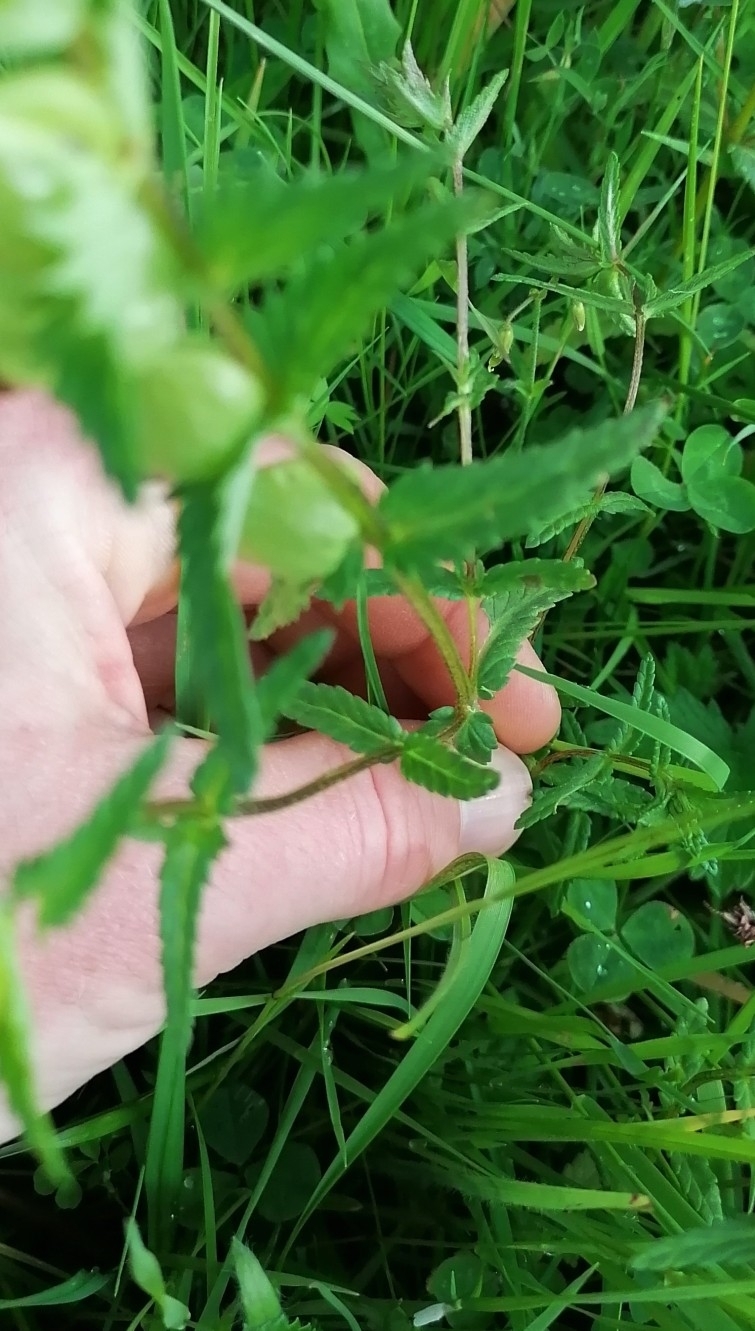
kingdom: Plantae
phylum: Tracheophyta
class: Magnoliopsida
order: Lamiales
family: Orobanchaceae
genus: Rhinanthus
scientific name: Rhinanthus minor
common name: Yellow-rattle
